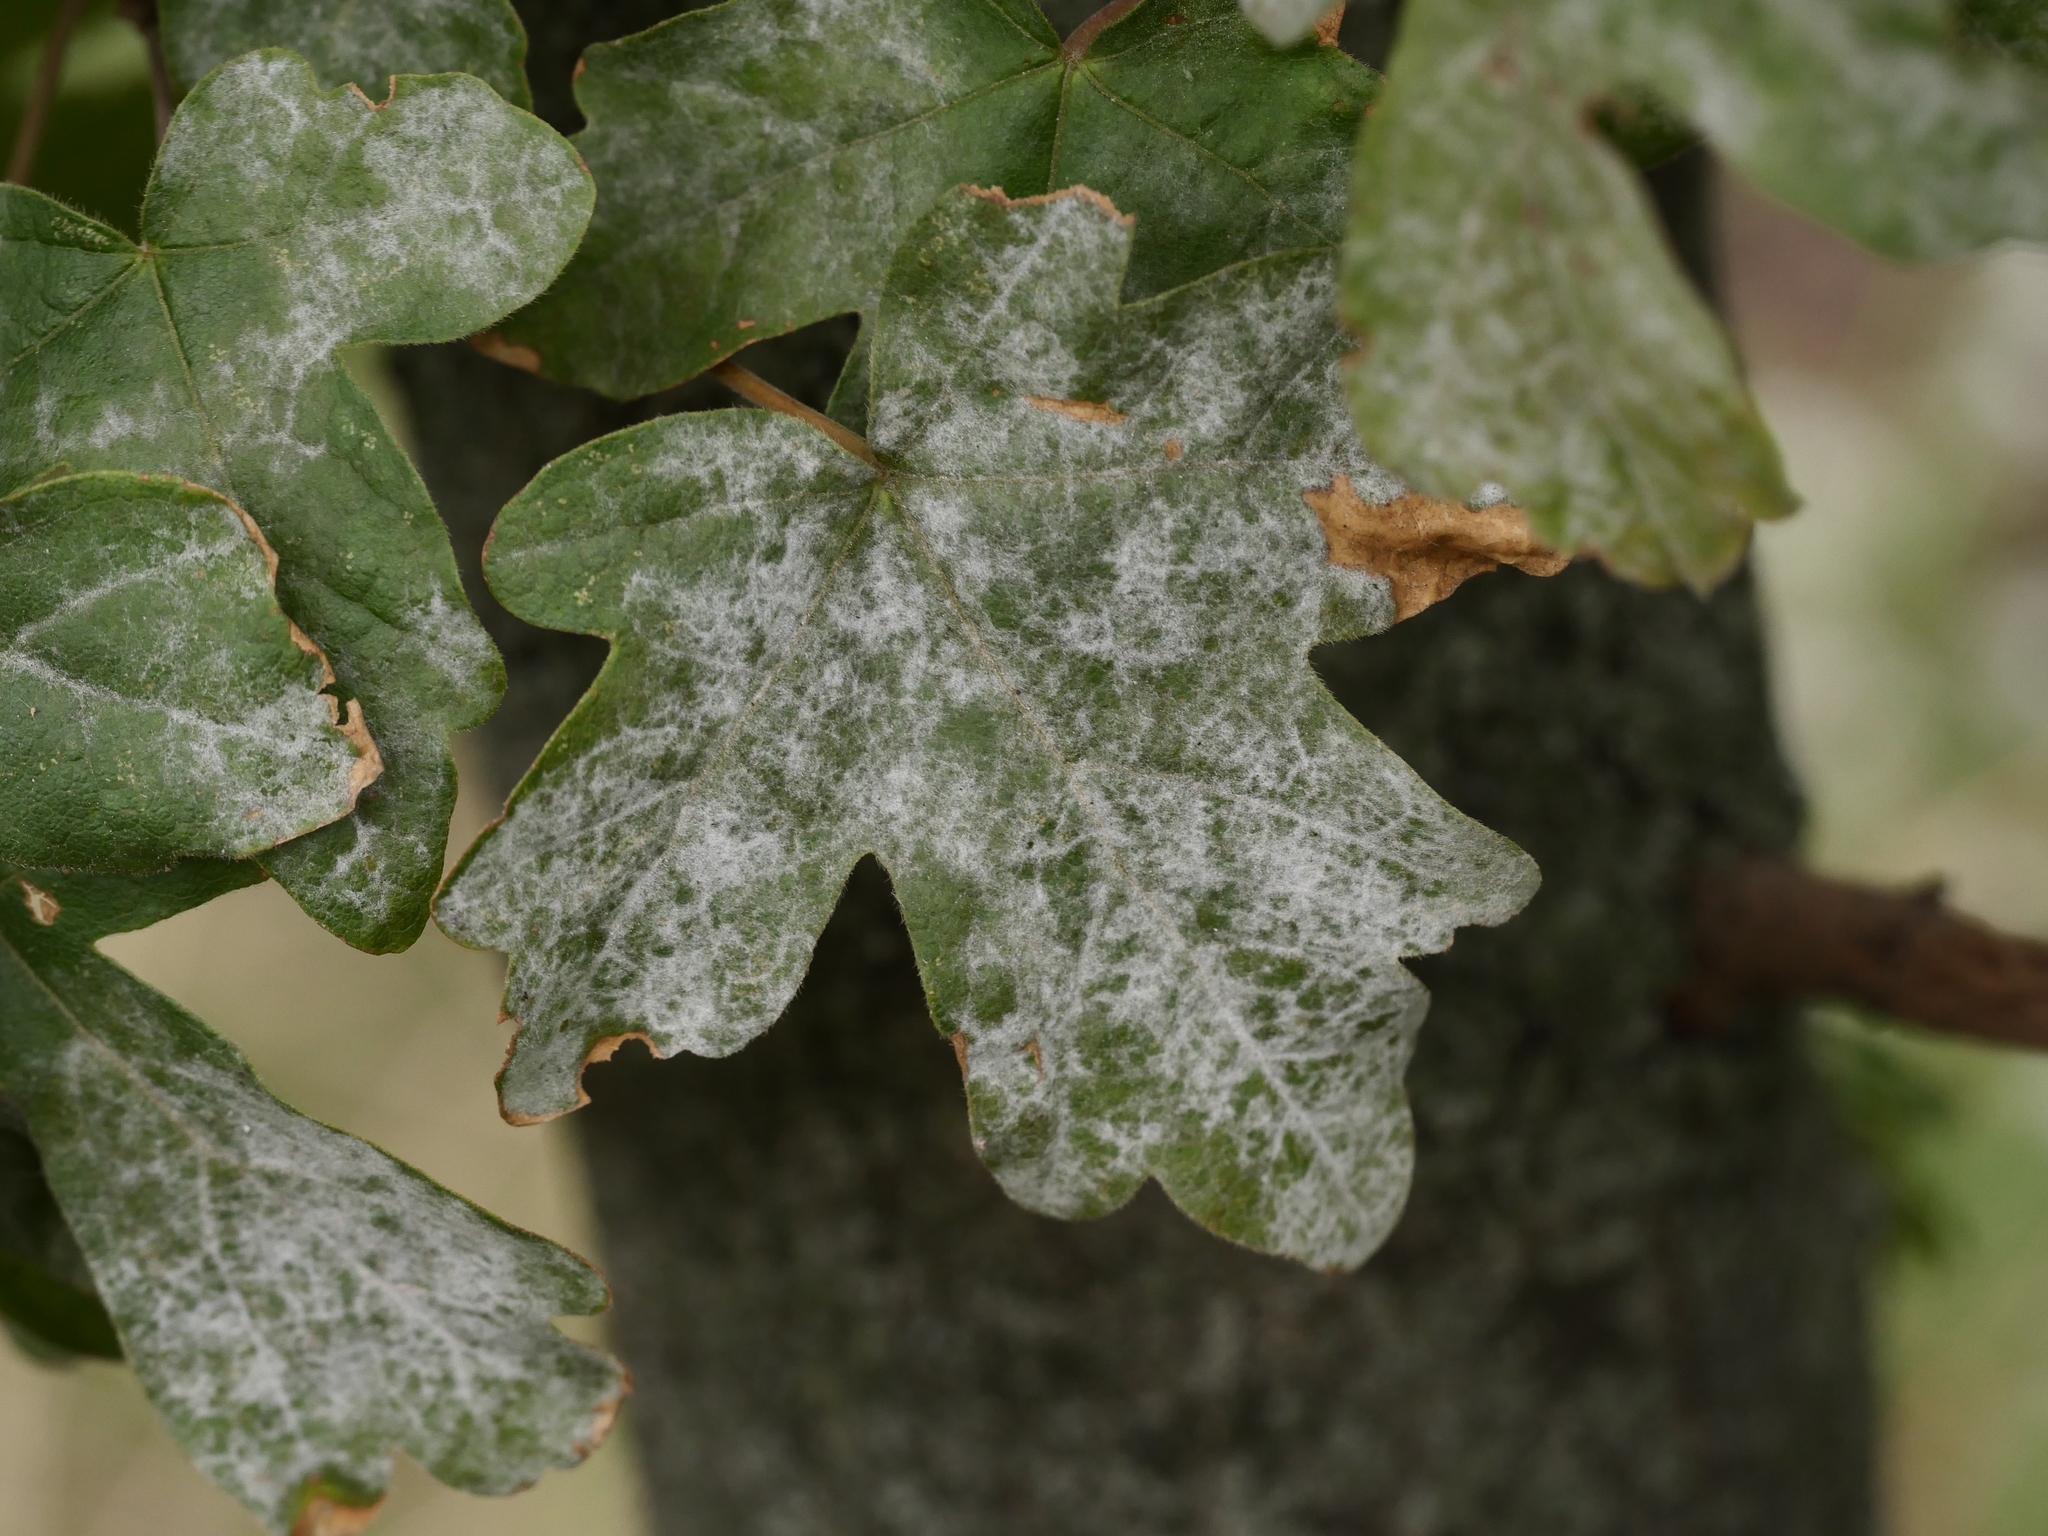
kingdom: Fungi
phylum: Ascomycota
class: Leotiomycetes
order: Helotiales
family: Erysiphaceae
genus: Sawadaea
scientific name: Sawadaea bicornis
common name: Maple mildew
